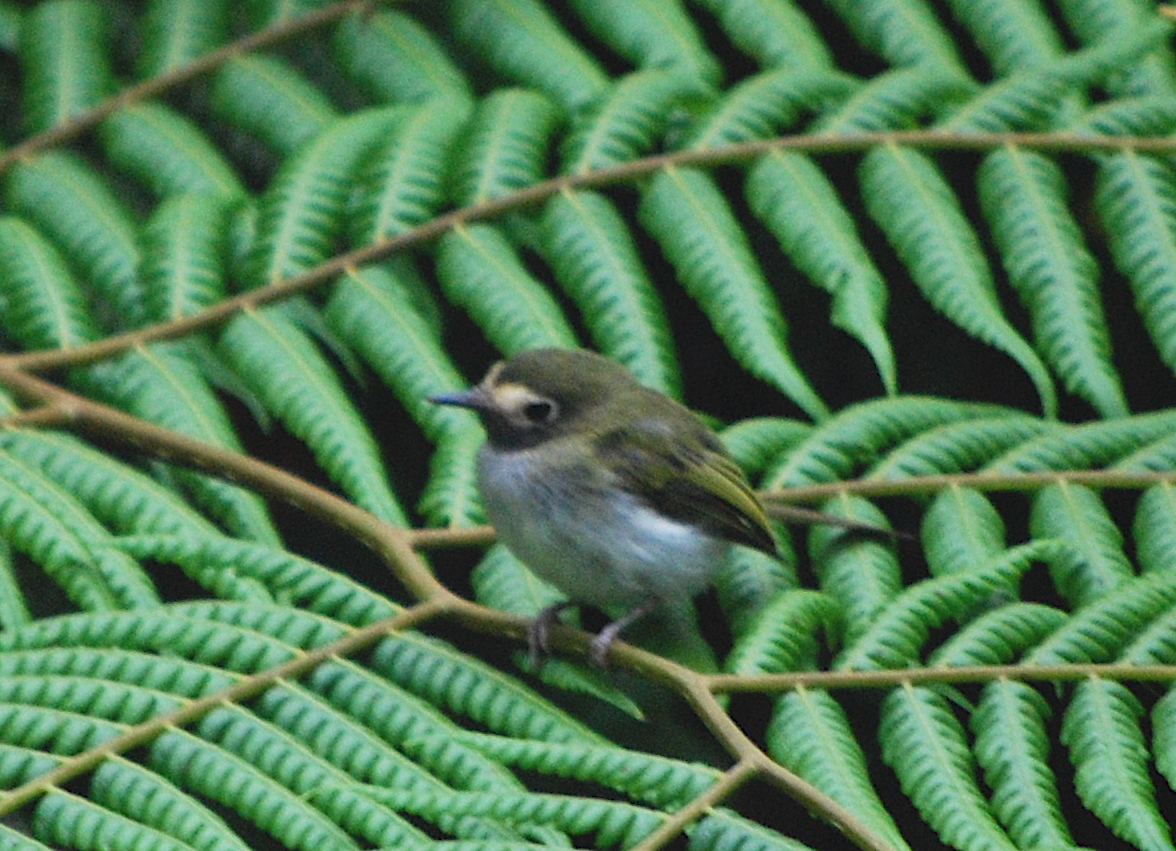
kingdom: Animalia
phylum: Chordata
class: Aves
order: Passeriformes
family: Tyrannidae
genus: Hemitriccus
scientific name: Hemitriccus granadensis
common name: Black-throated tody-tyrant
